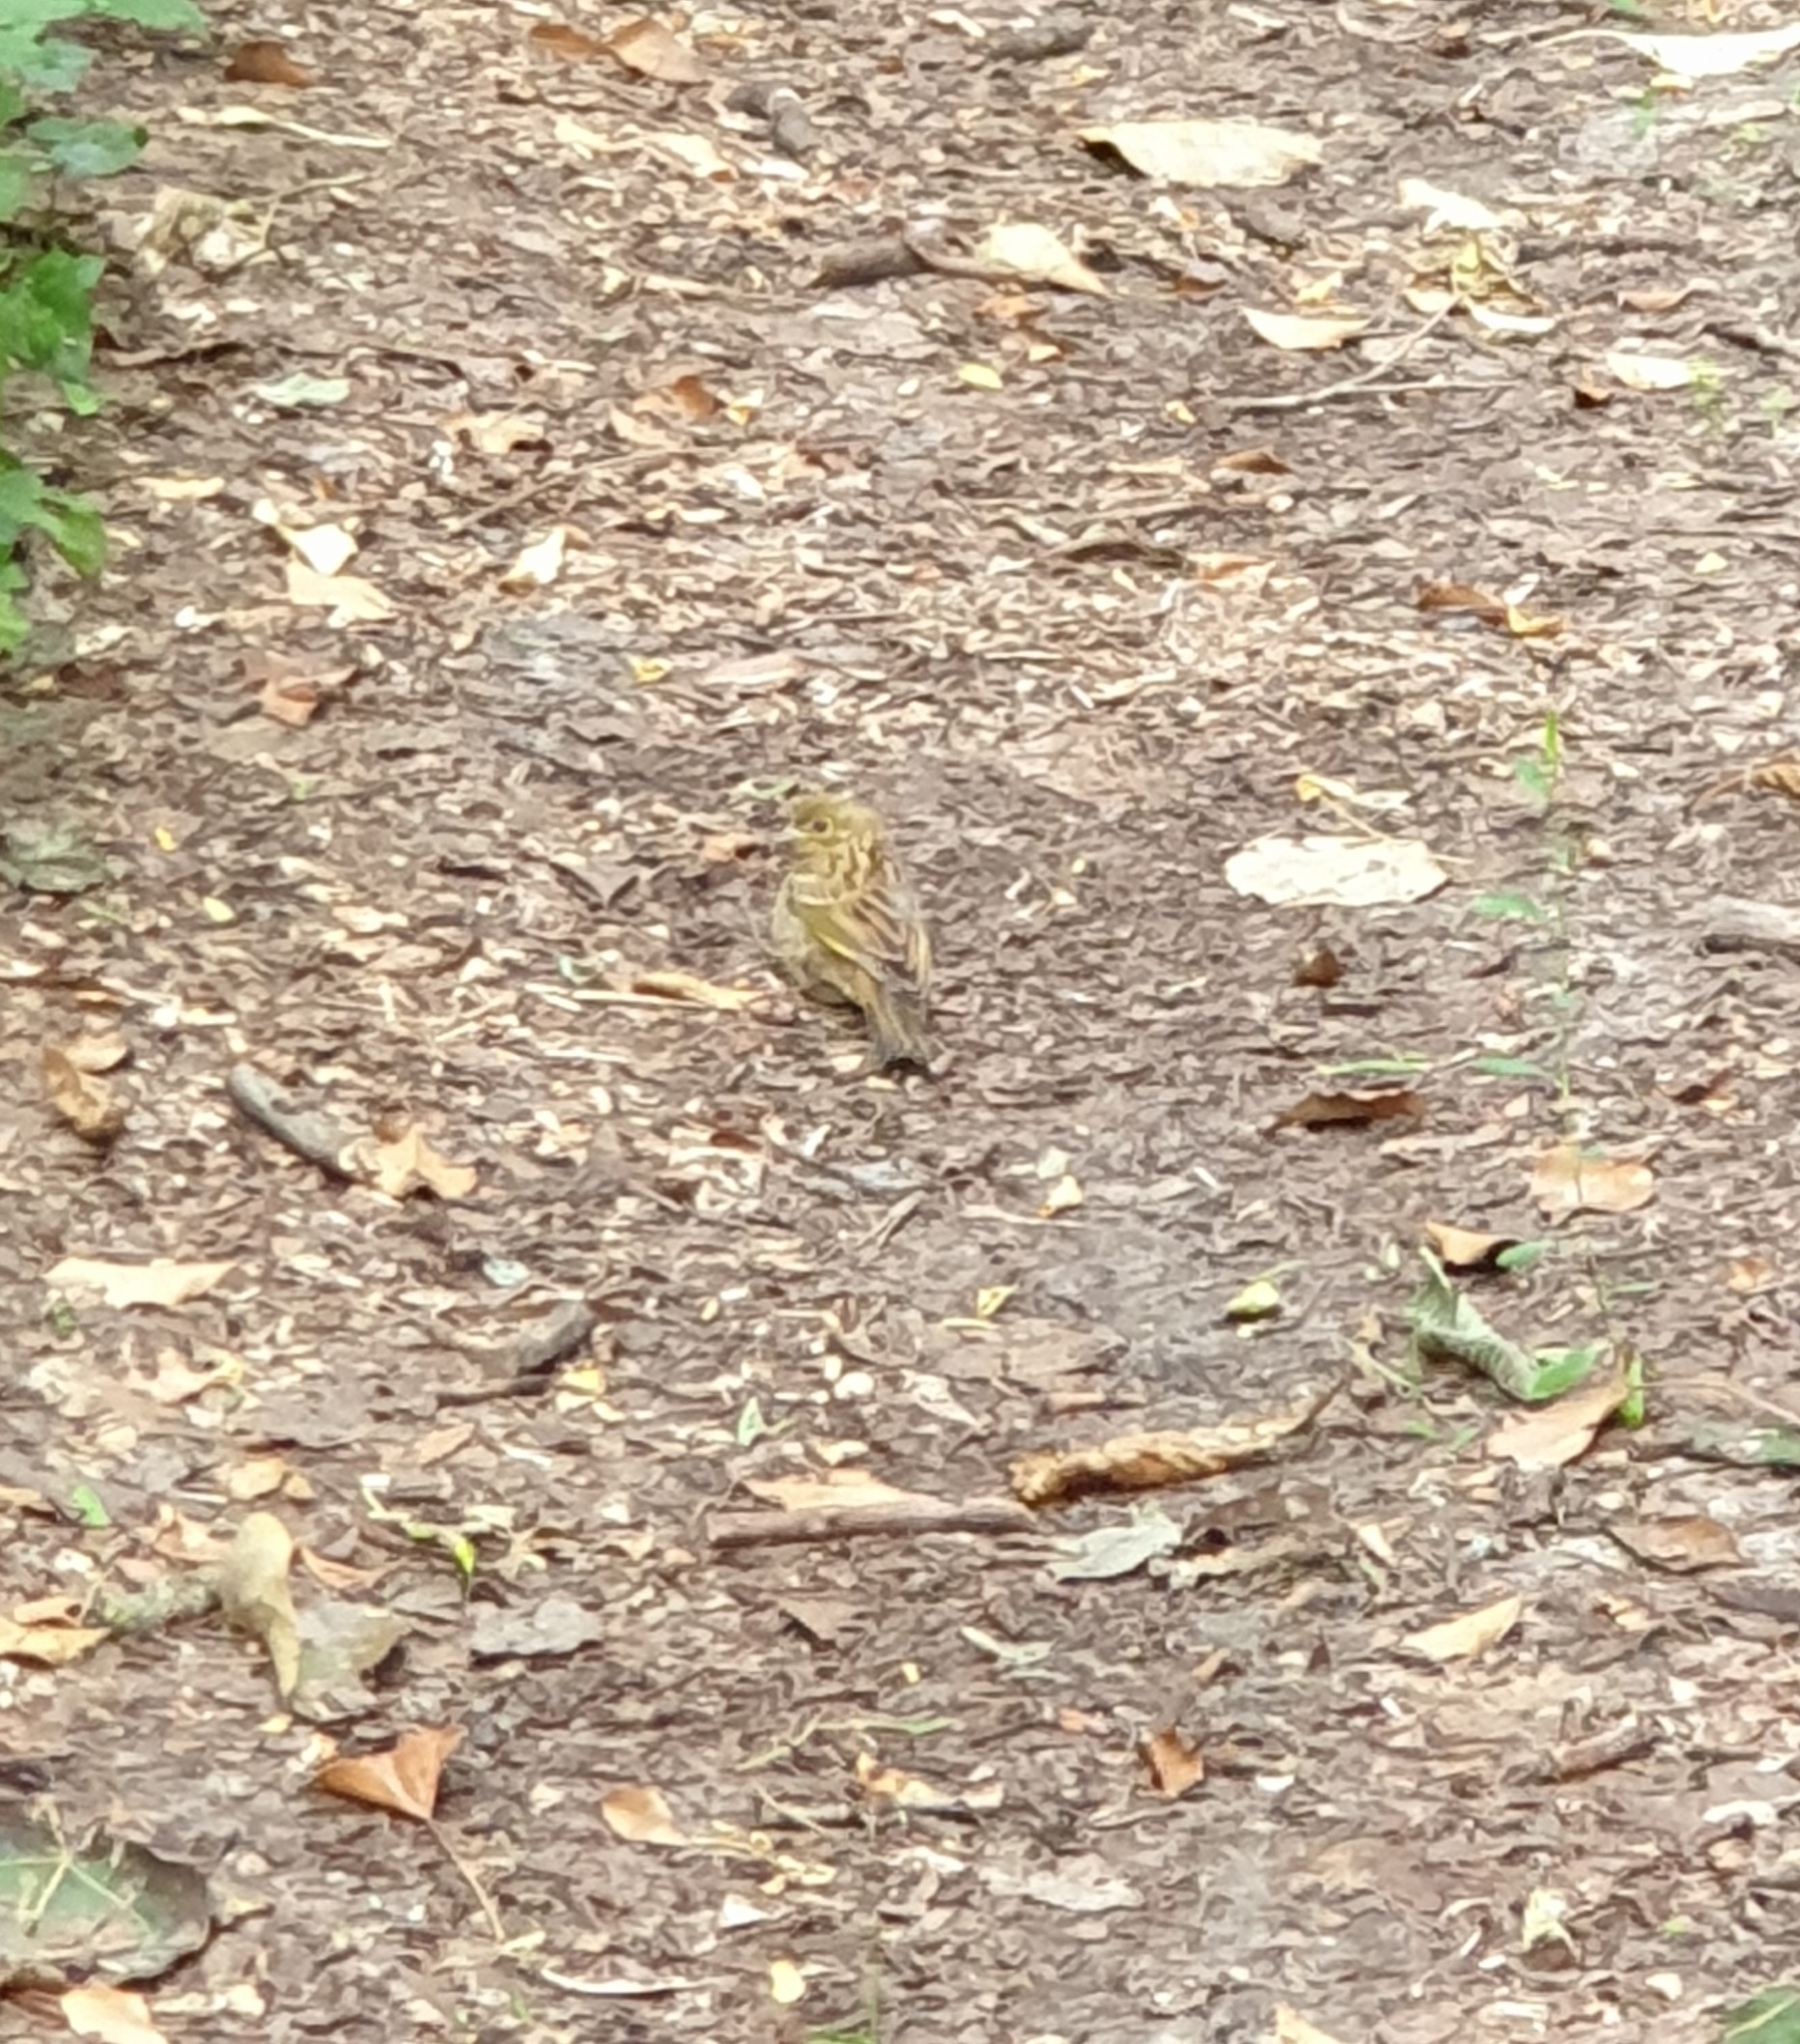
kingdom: Animalia
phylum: Chordata
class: Aves
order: Passeriformes
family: Emberizidae
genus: Emberiza
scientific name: Emberiza citrinella
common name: Yellowhammer
